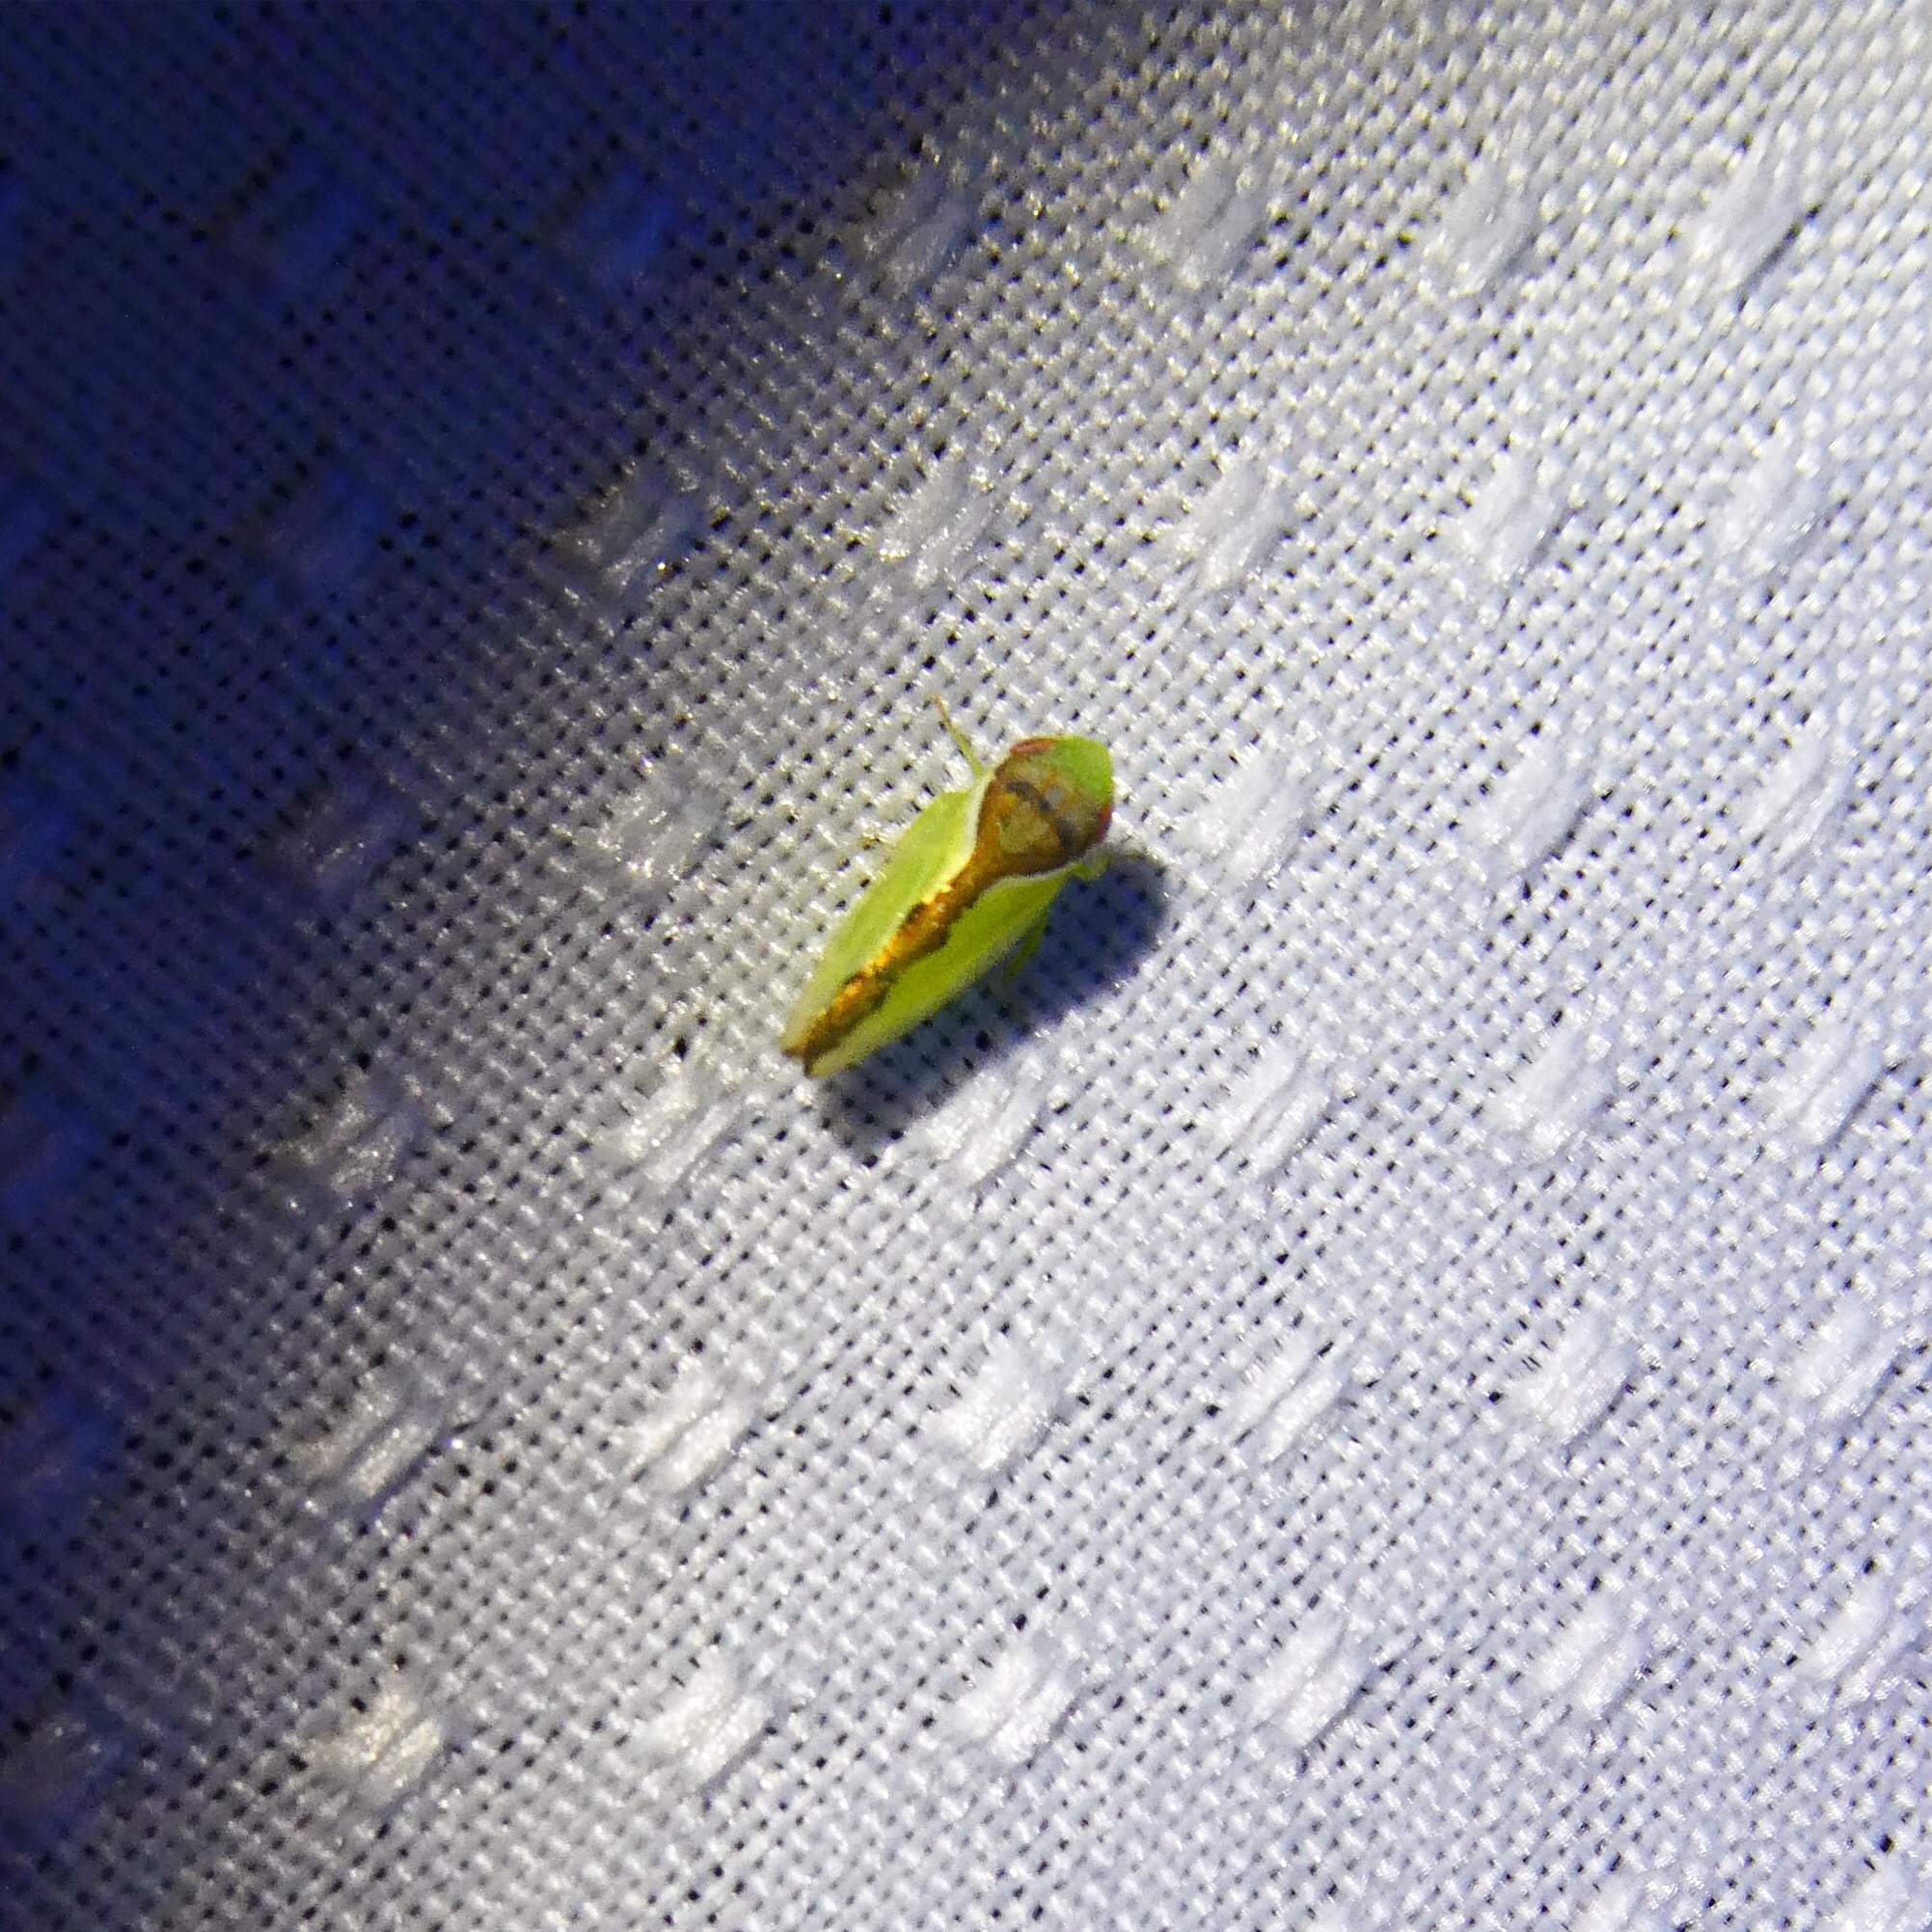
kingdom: Animalia
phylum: Arthropoda
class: Insecta
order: Hemiptera
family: Cicadellidae
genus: Omansobara ing
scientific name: Omansobara ing Omansobara palliolata
